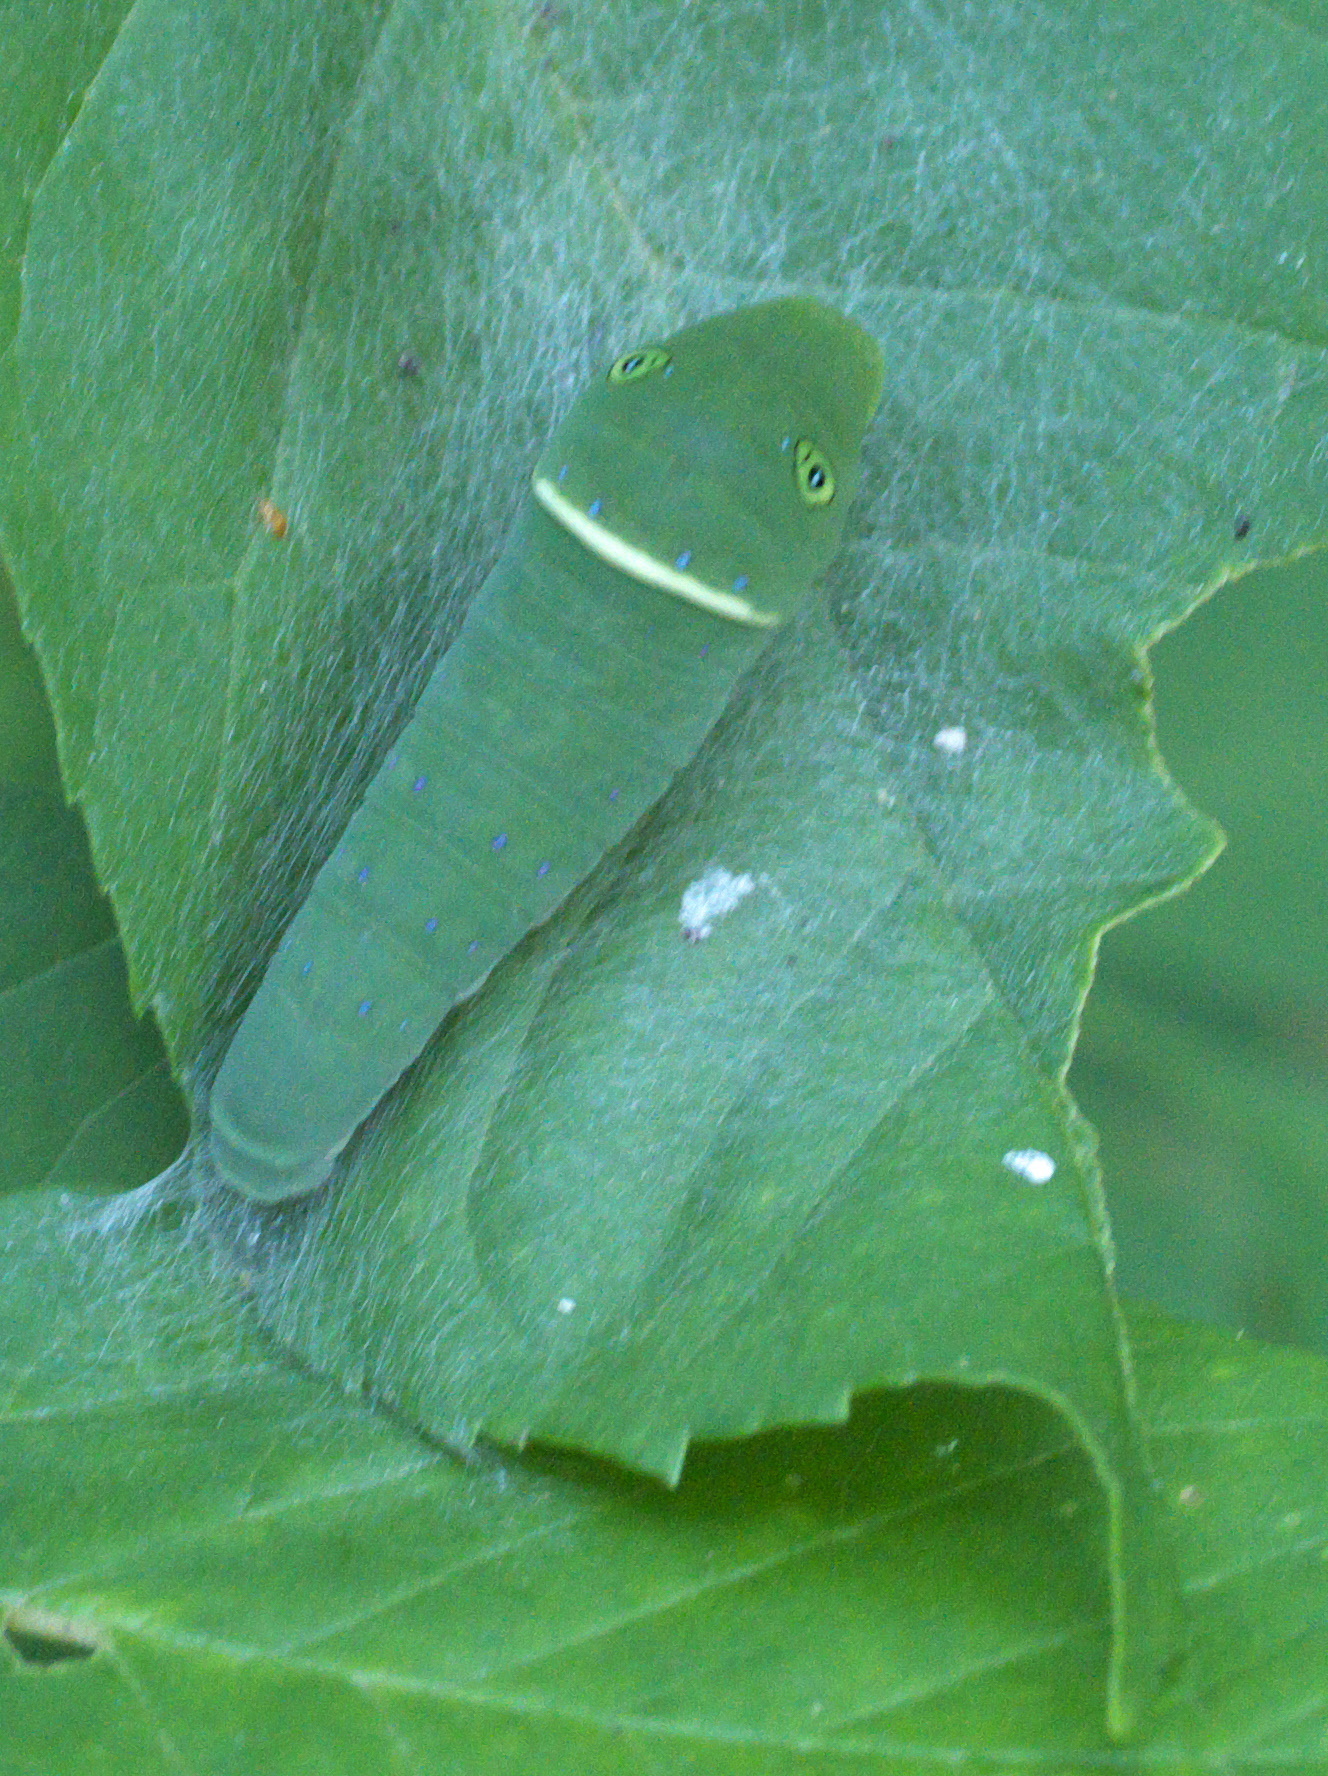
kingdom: Animalia
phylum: Arthropoda
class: Insecta
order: Lepidoptera
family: Papilionidae
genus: Papilio
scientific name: Papilio glaucus
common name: Tiger swallowtail
